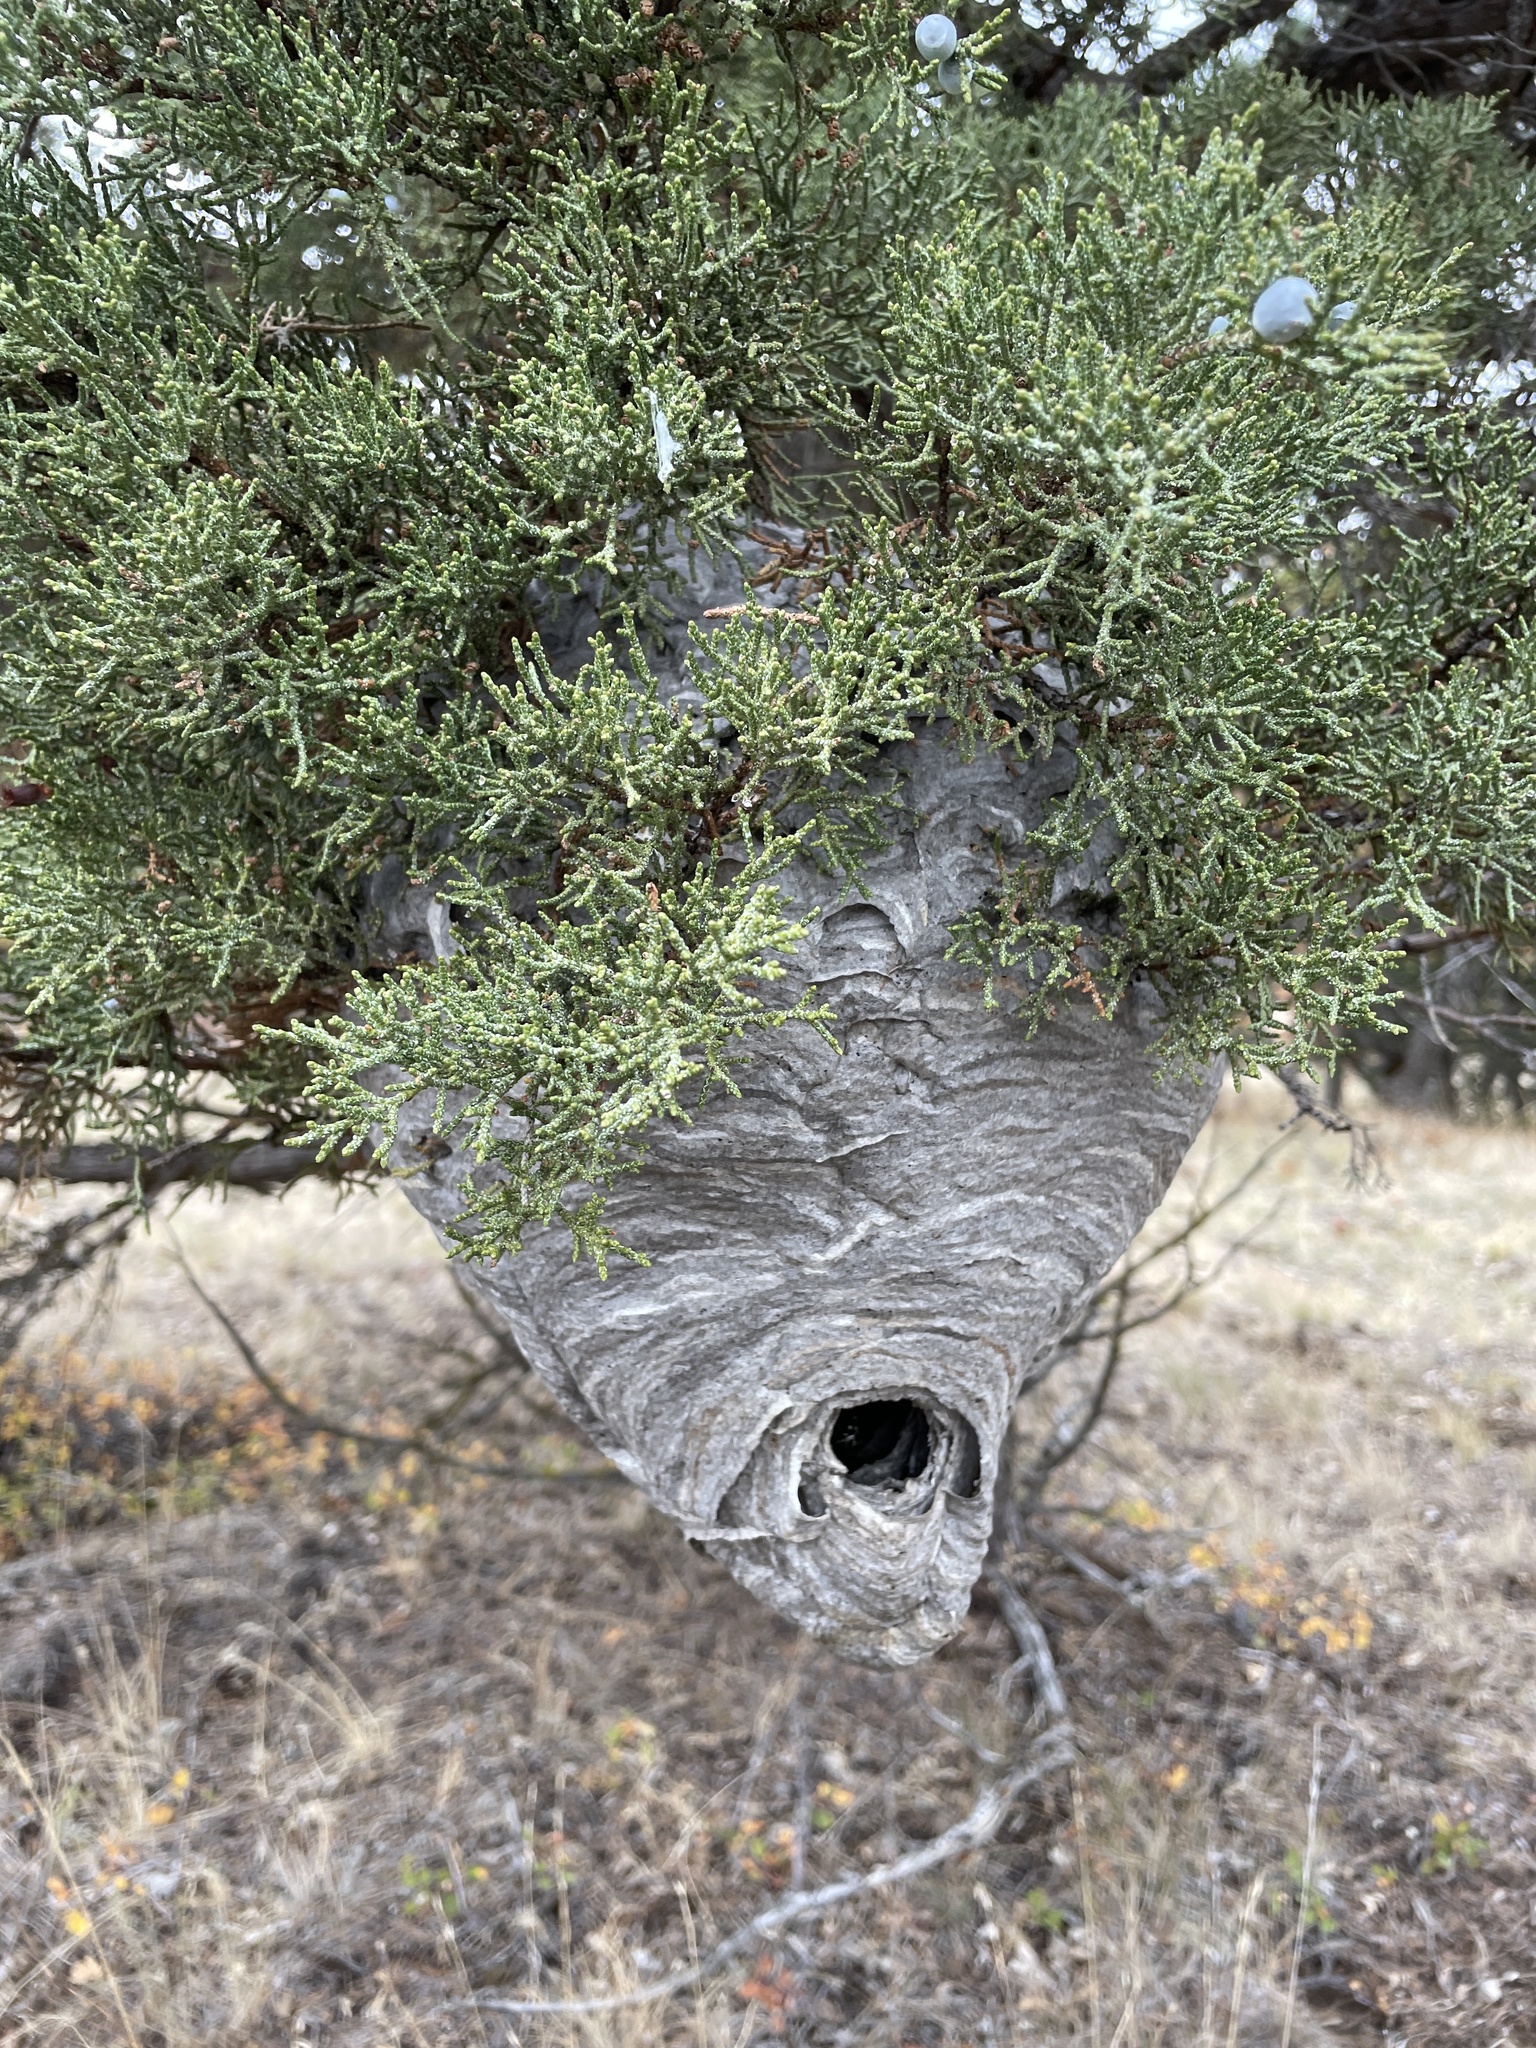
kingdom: Animalia
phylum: Arthropoda
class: Insecta
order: Hymenoptera
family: Vespidae
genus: Dolichovespula
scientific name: Dolichovespula maculata
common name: Bald-faced hornet
